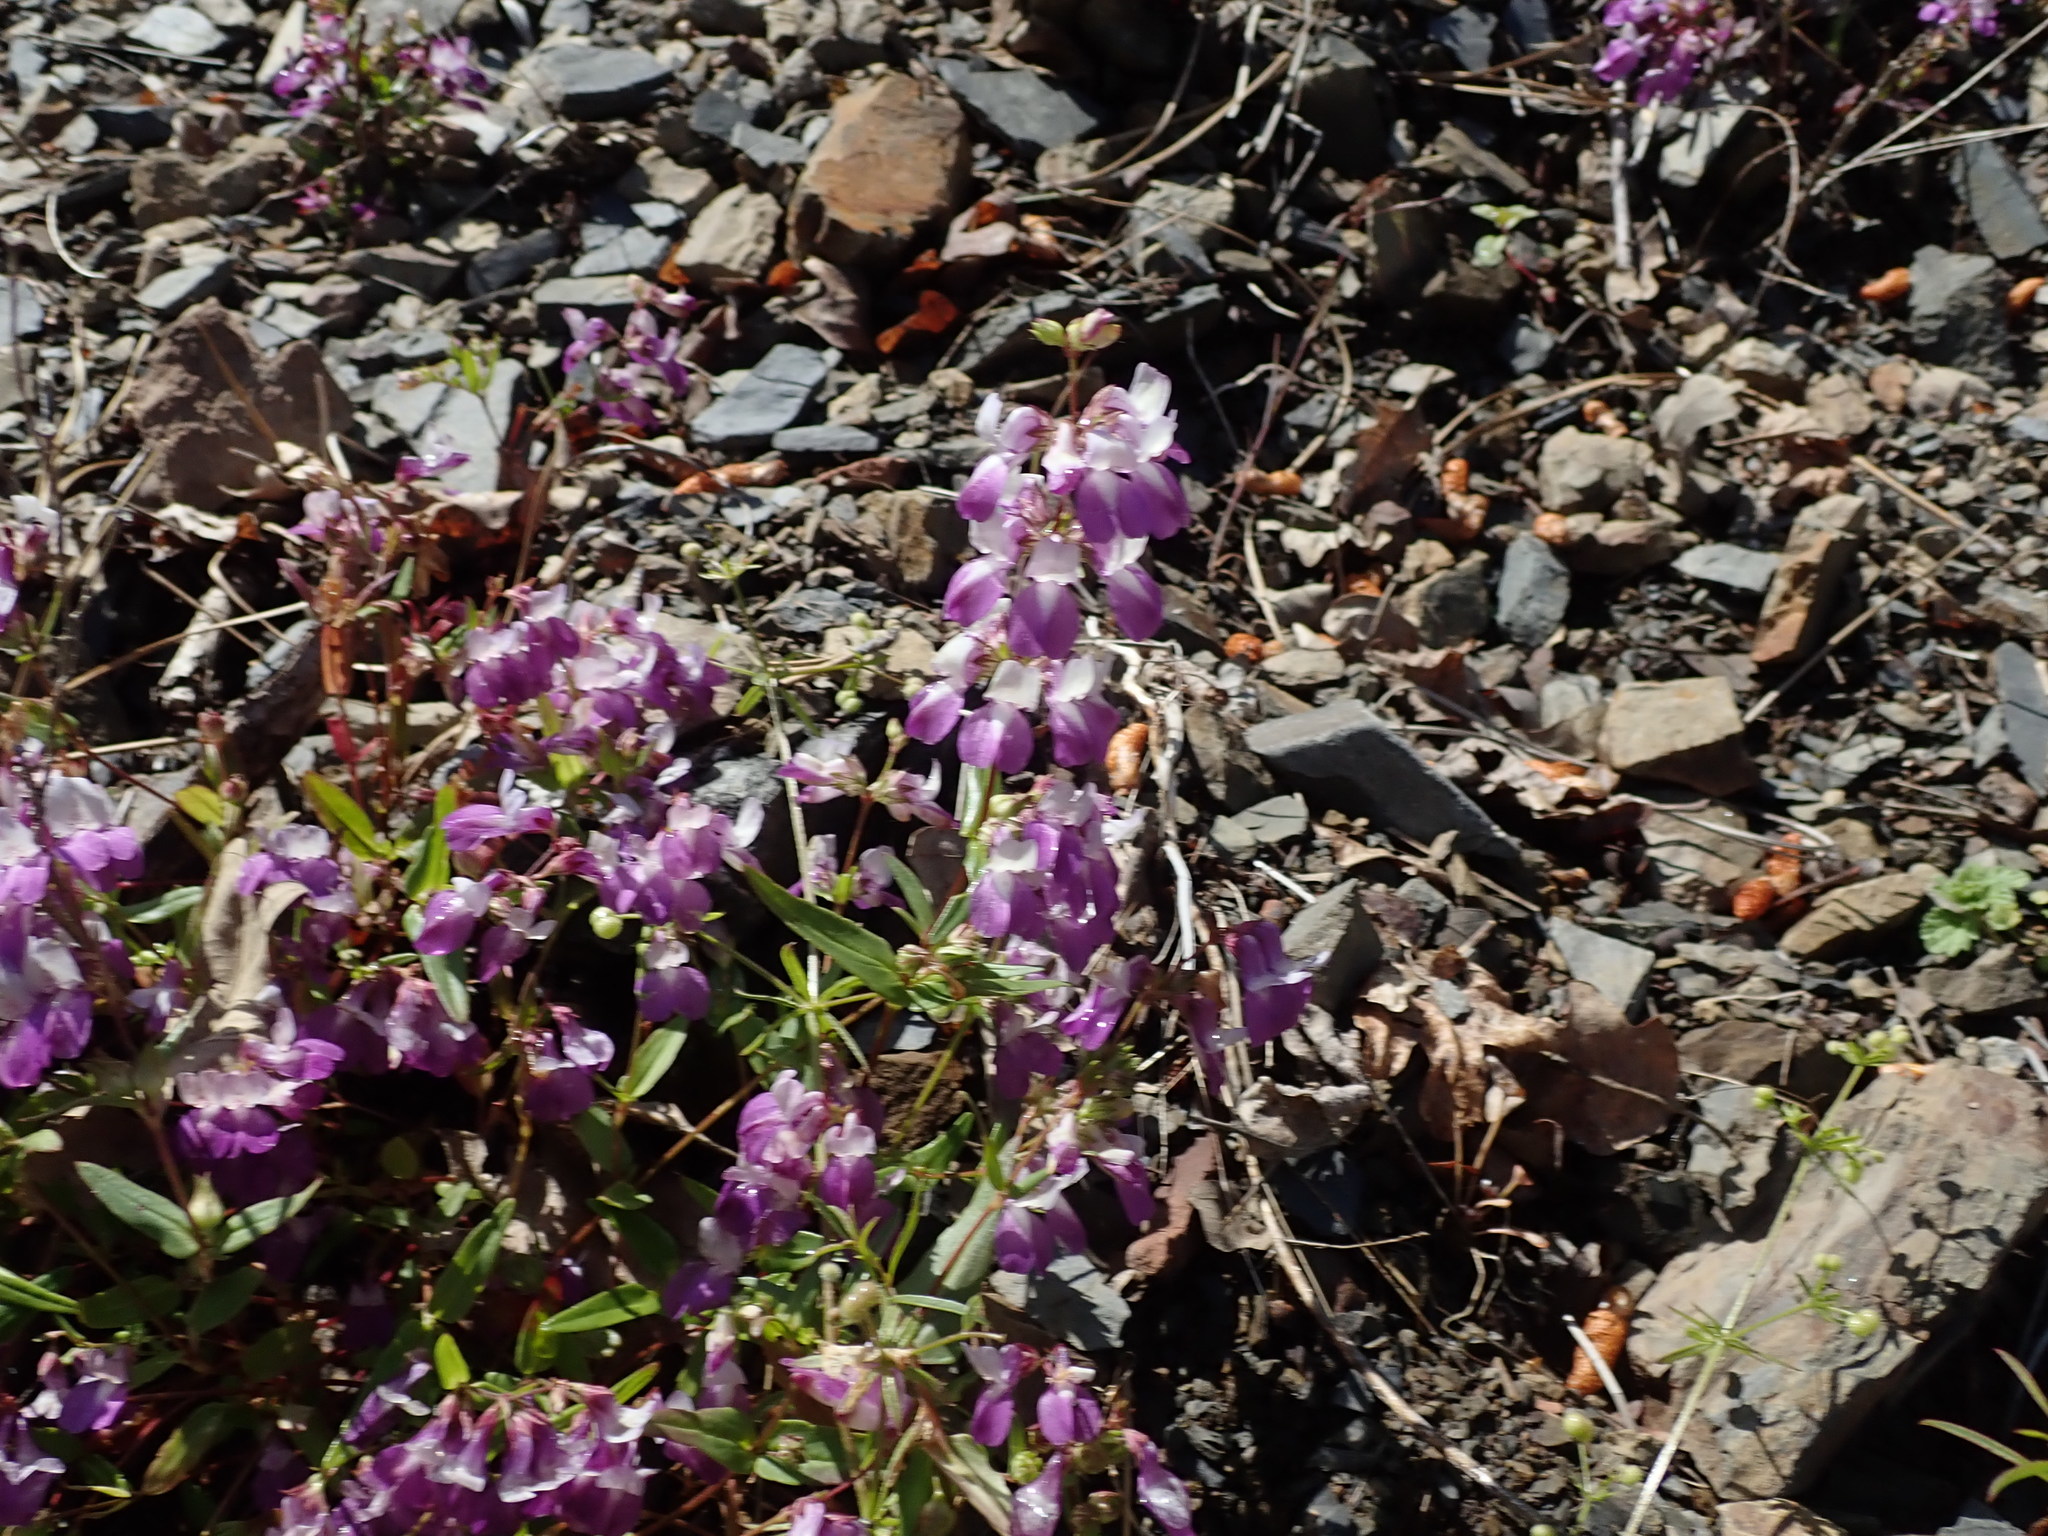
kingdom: Plantae
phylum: Tracheophyta
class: Magnoliopsida
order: Lamiales
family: Plantaginaceae
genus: Collinsia
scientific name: Collinsia heterophylla
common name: Chinese-houses
